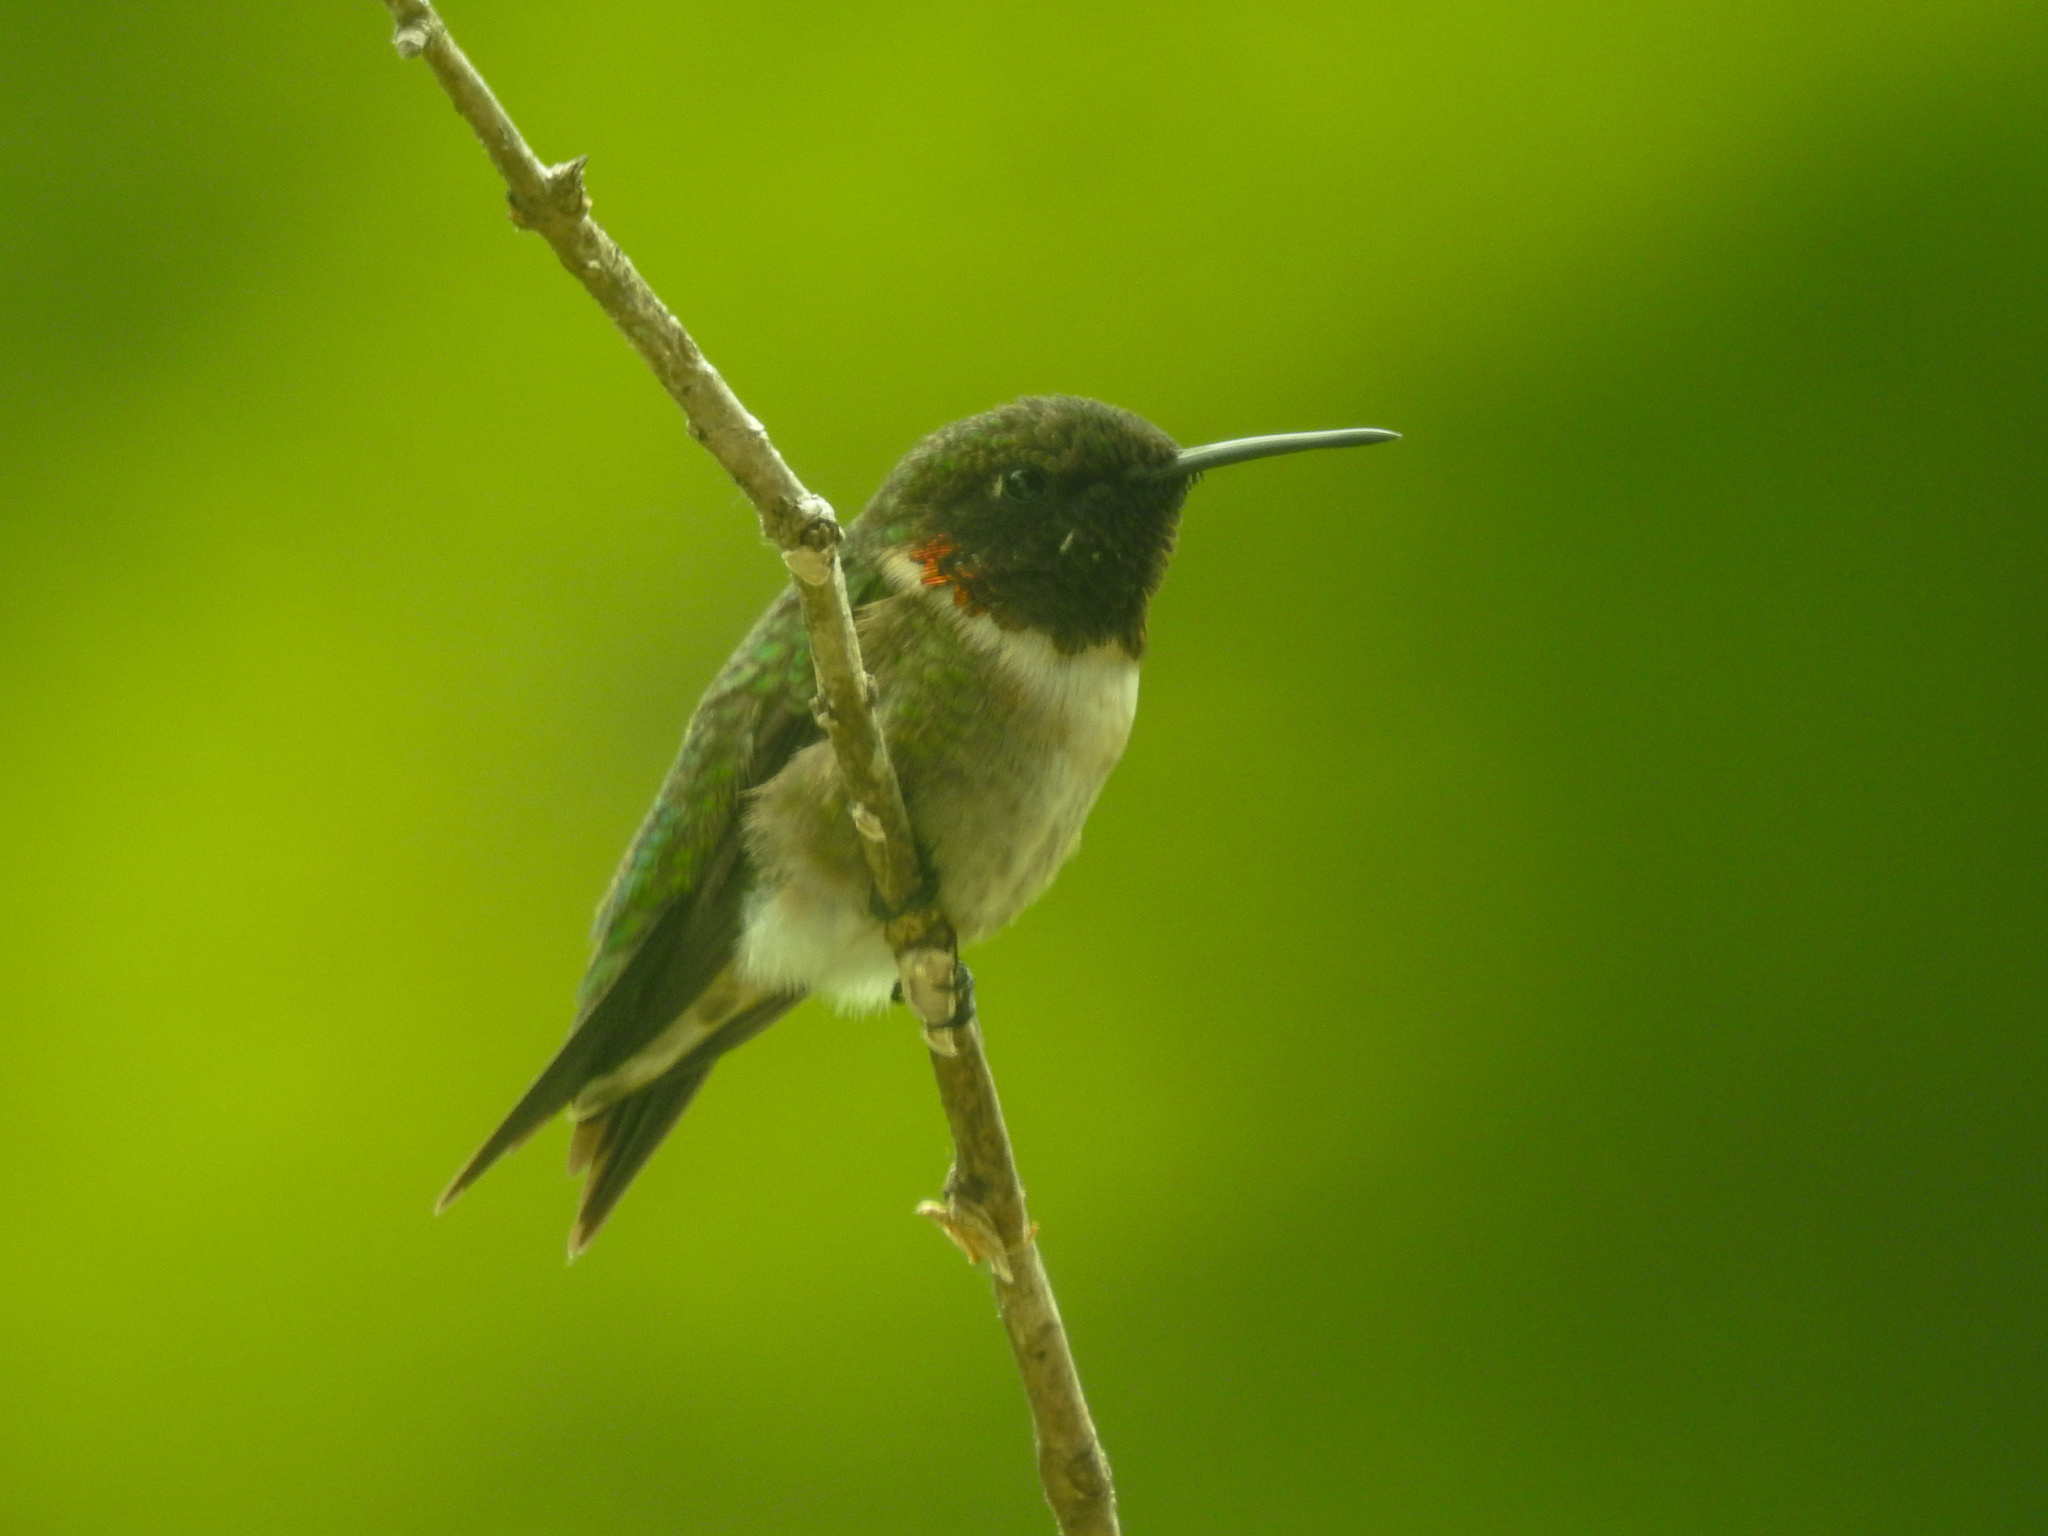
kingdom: Animalia
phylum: Chordata
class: Aves
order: Apodiformes
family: Trochilidae
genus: Archilochus
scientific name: Archilochus colubris
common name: Ruby-throated hummingbird
